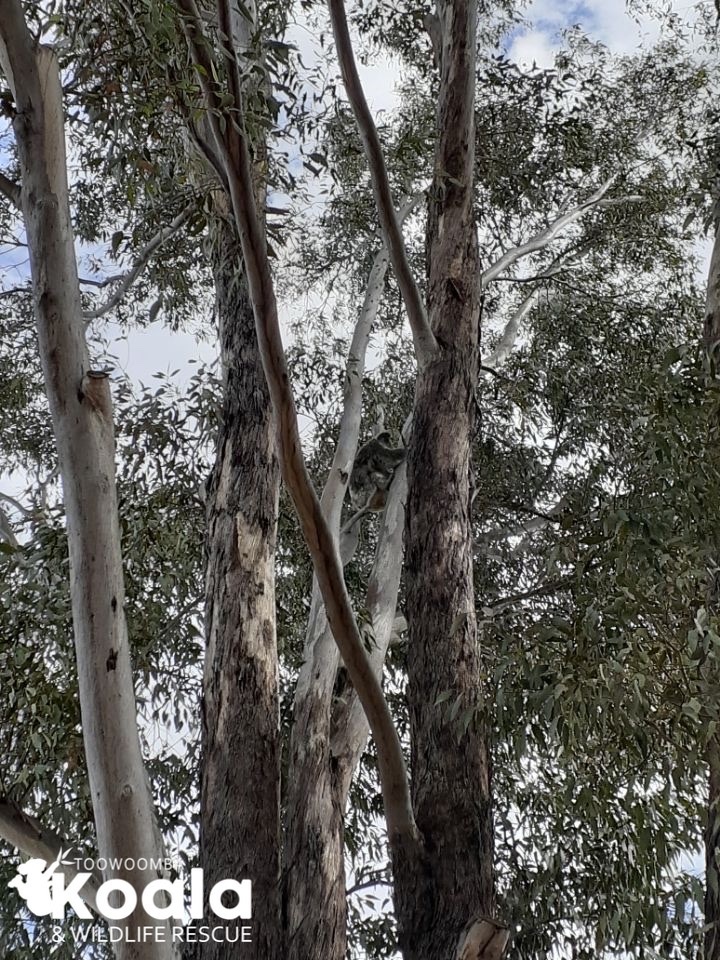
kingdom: Animalia
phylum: Chordata
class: Mammalia
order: Diprotodontia
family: Phascolarctidae
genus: Phascolarctos
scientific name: Phascolarctos cinereus
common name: Koala
